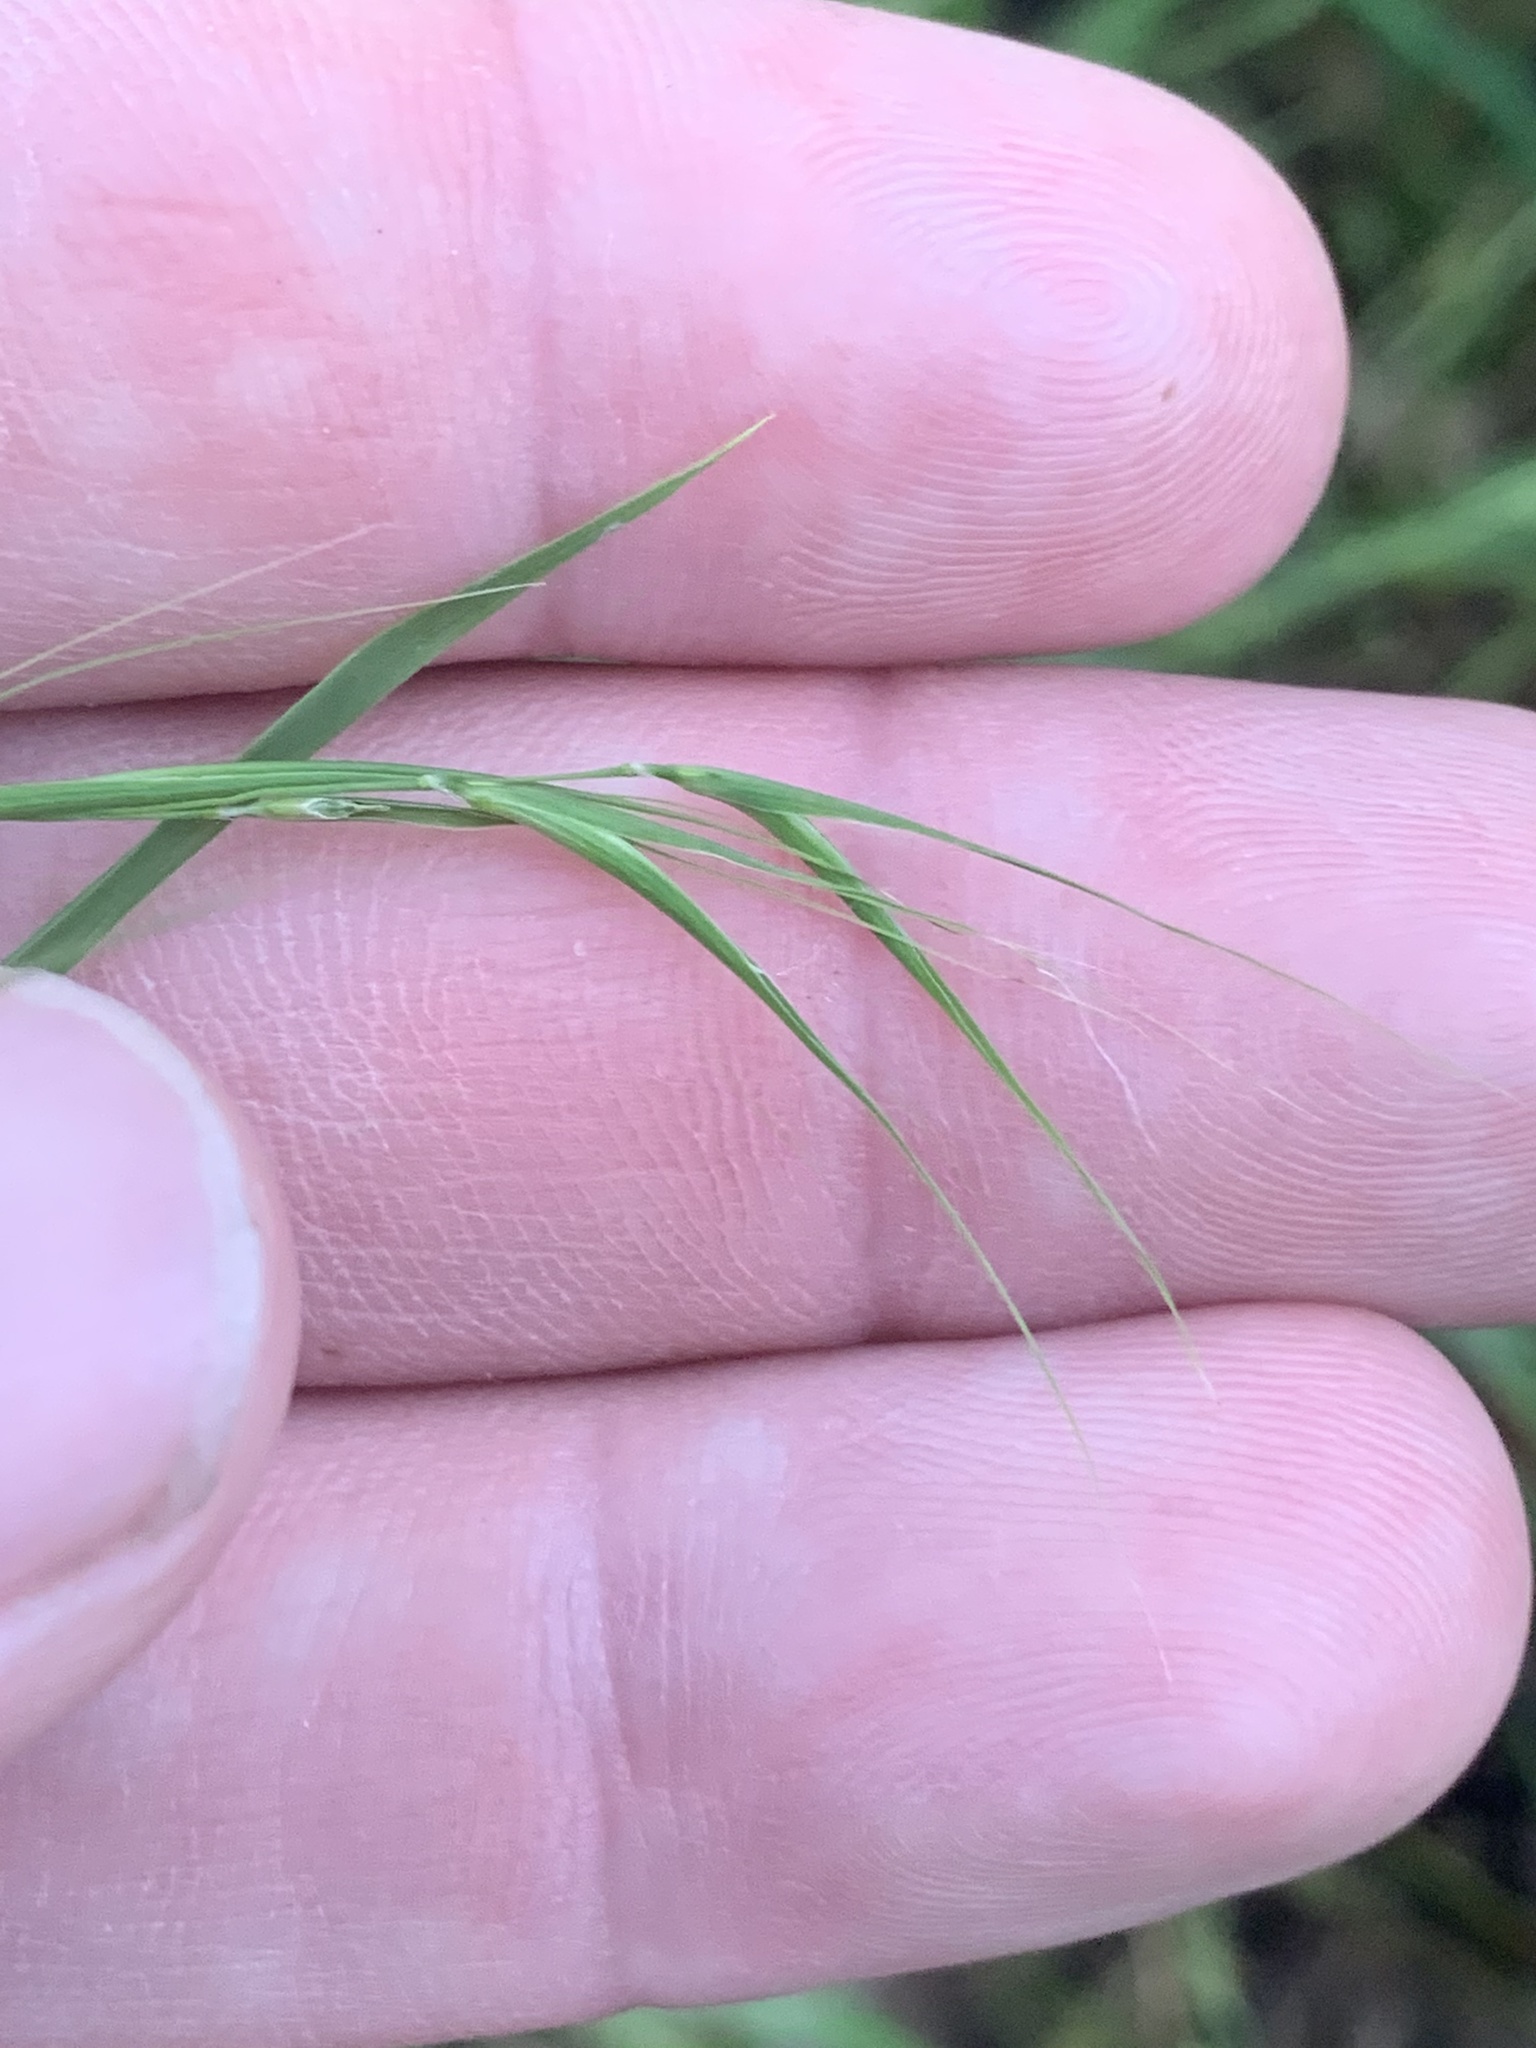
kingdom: Plantae
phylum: Tracheophyta
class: Liliopsida
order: Poales
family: Poaceae
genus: Microlaena
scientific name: Microlaena stipoides
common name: Meadow ricegrass
